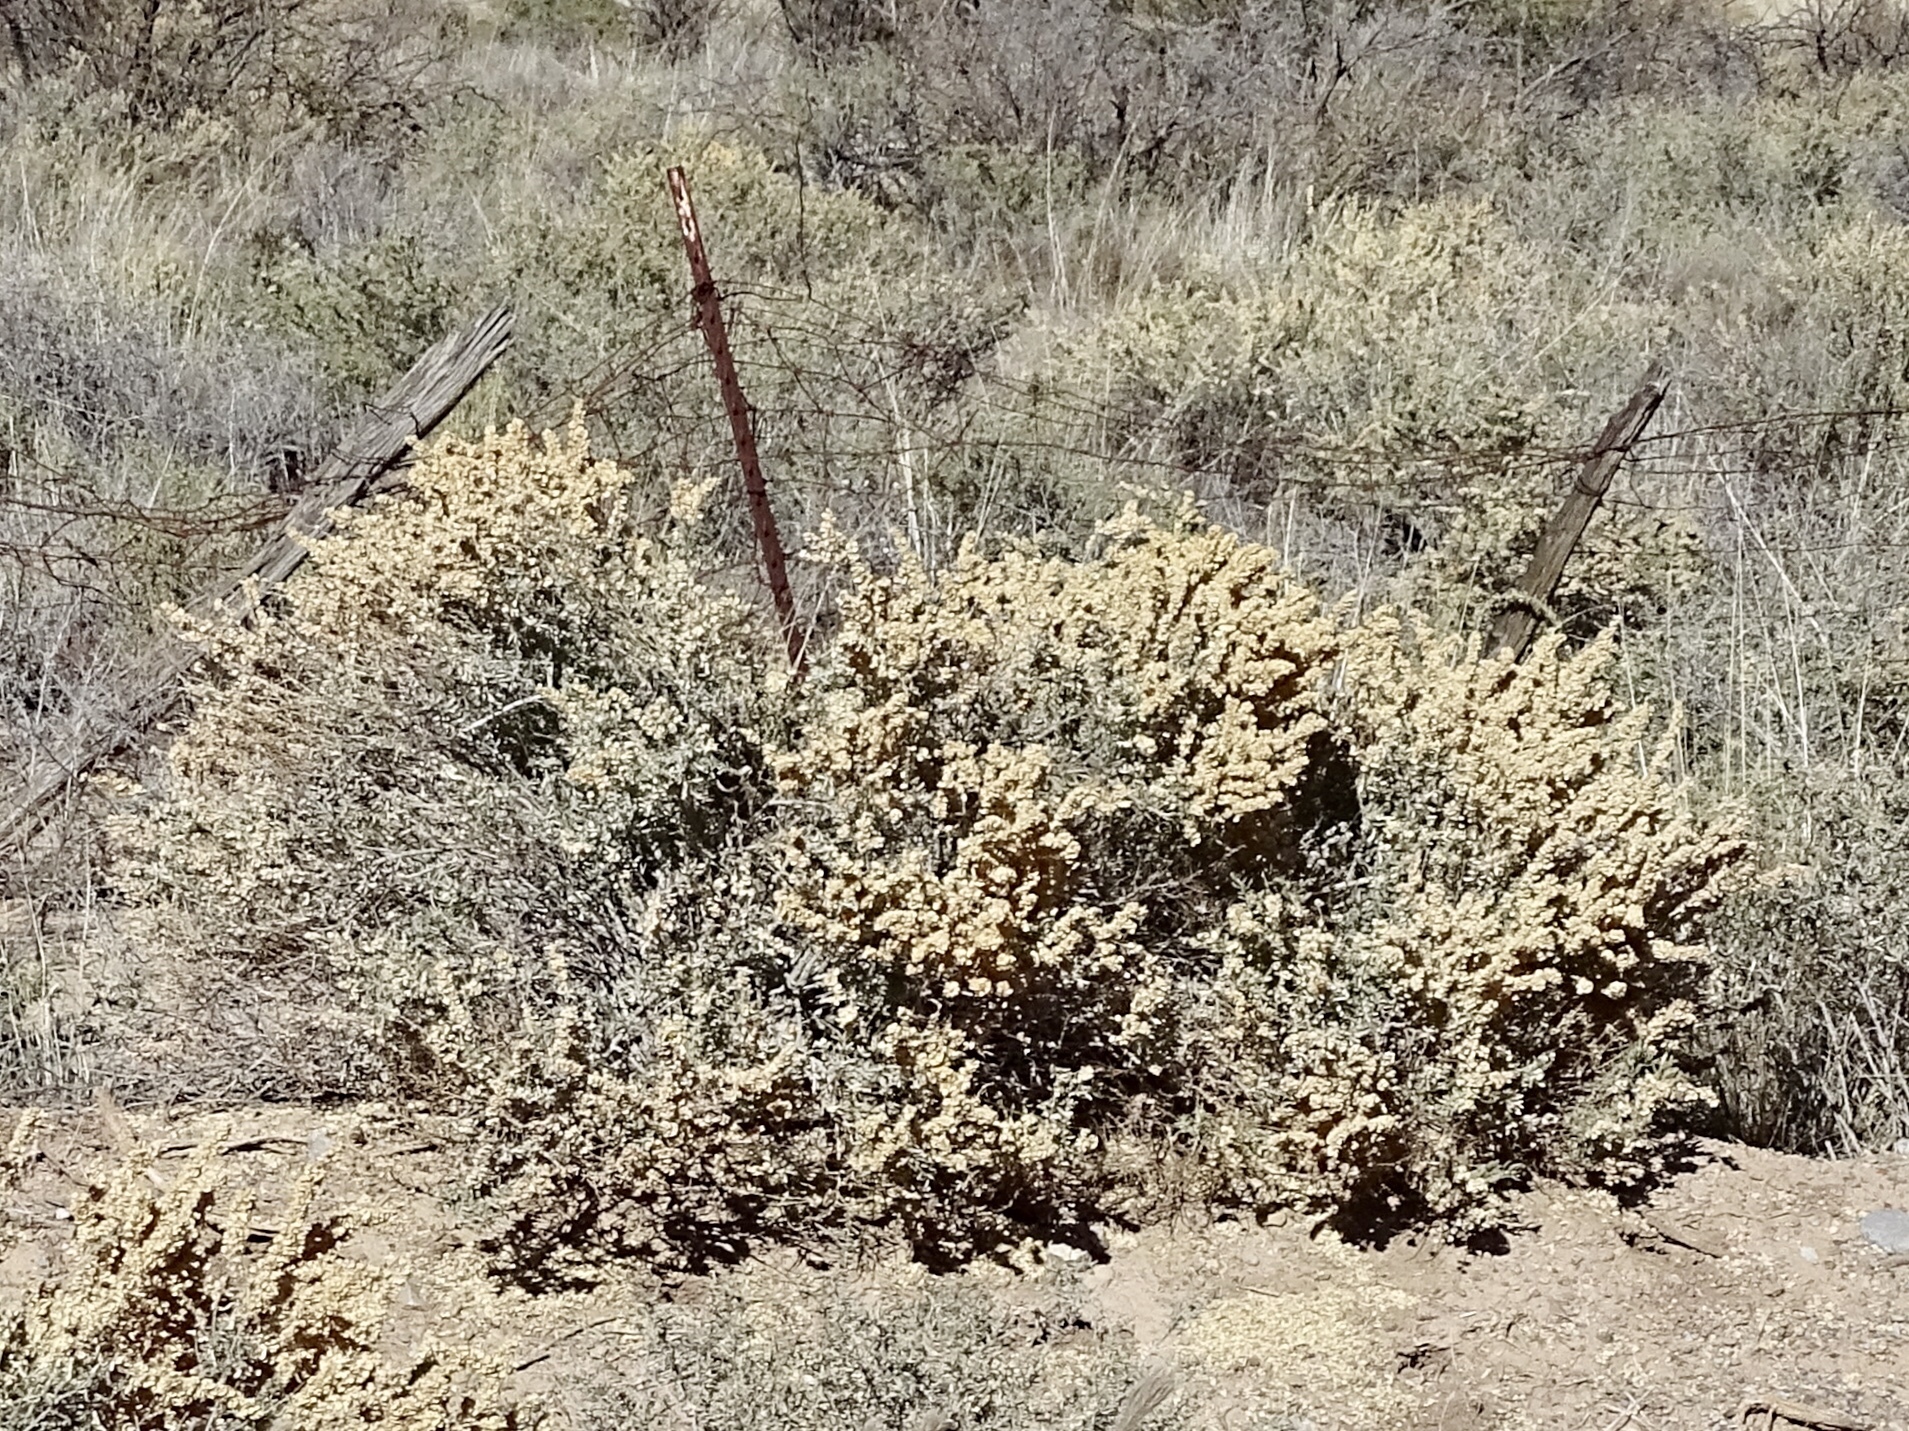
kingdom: Plantae
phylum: Tracheophyta
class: Magnoliopsida
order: Caryophyllales
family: Amaranthaceae
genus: Atriplex
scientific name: Atriplex canescens
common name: Four-wing saltbush
